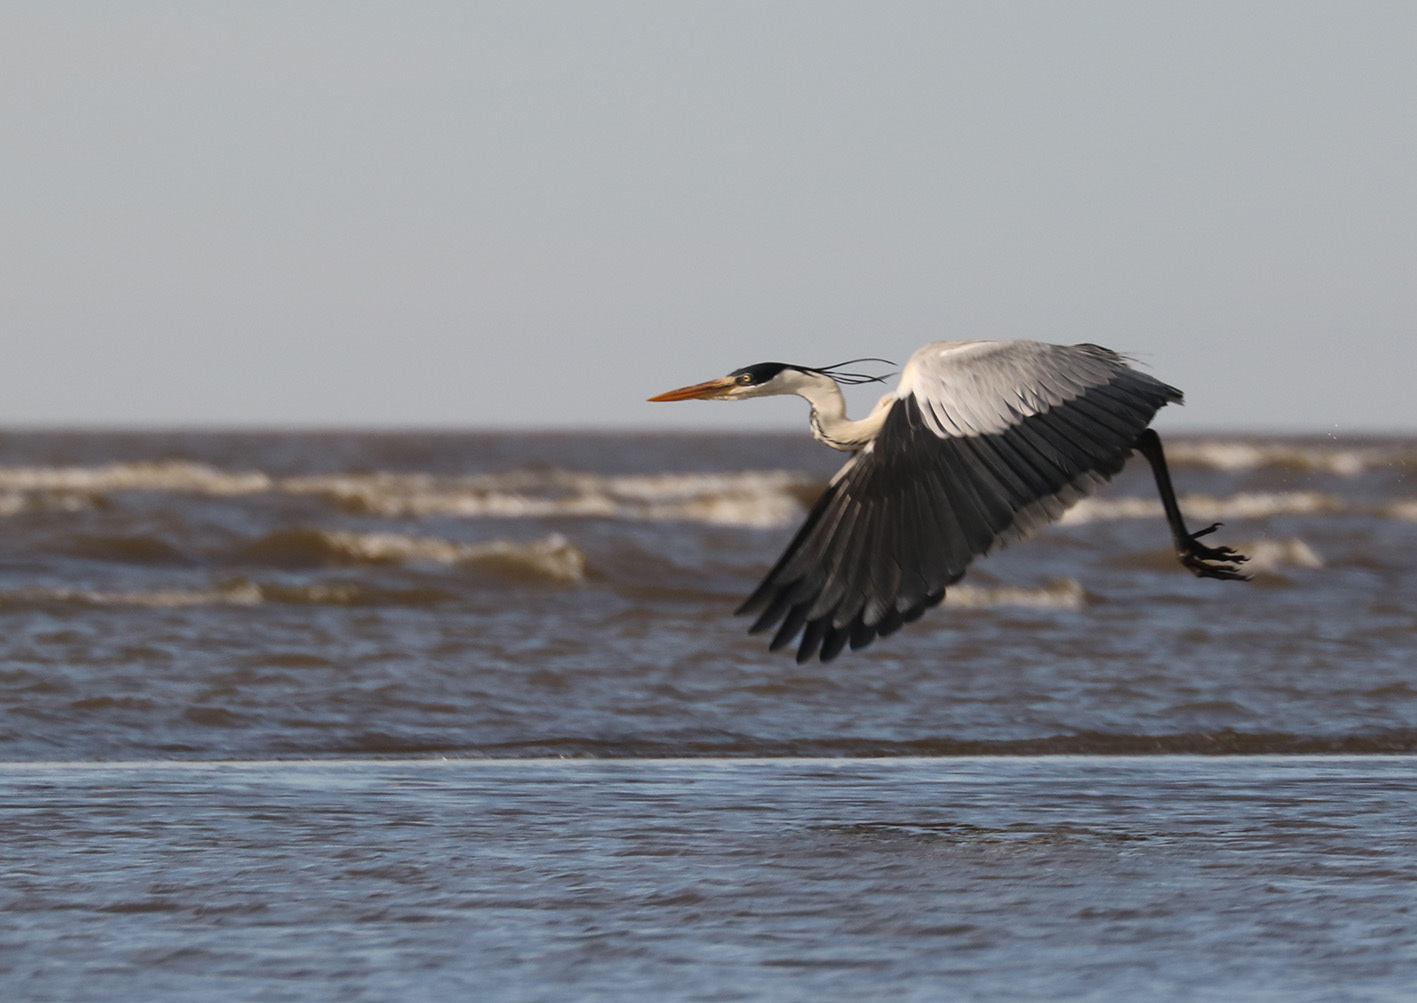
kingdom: Animalia
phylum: Chordata
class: Aves
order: Pelecaniformes
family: Ardeidae
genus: Ardea
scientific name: Ardea cocoi
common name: Cocoi heron
